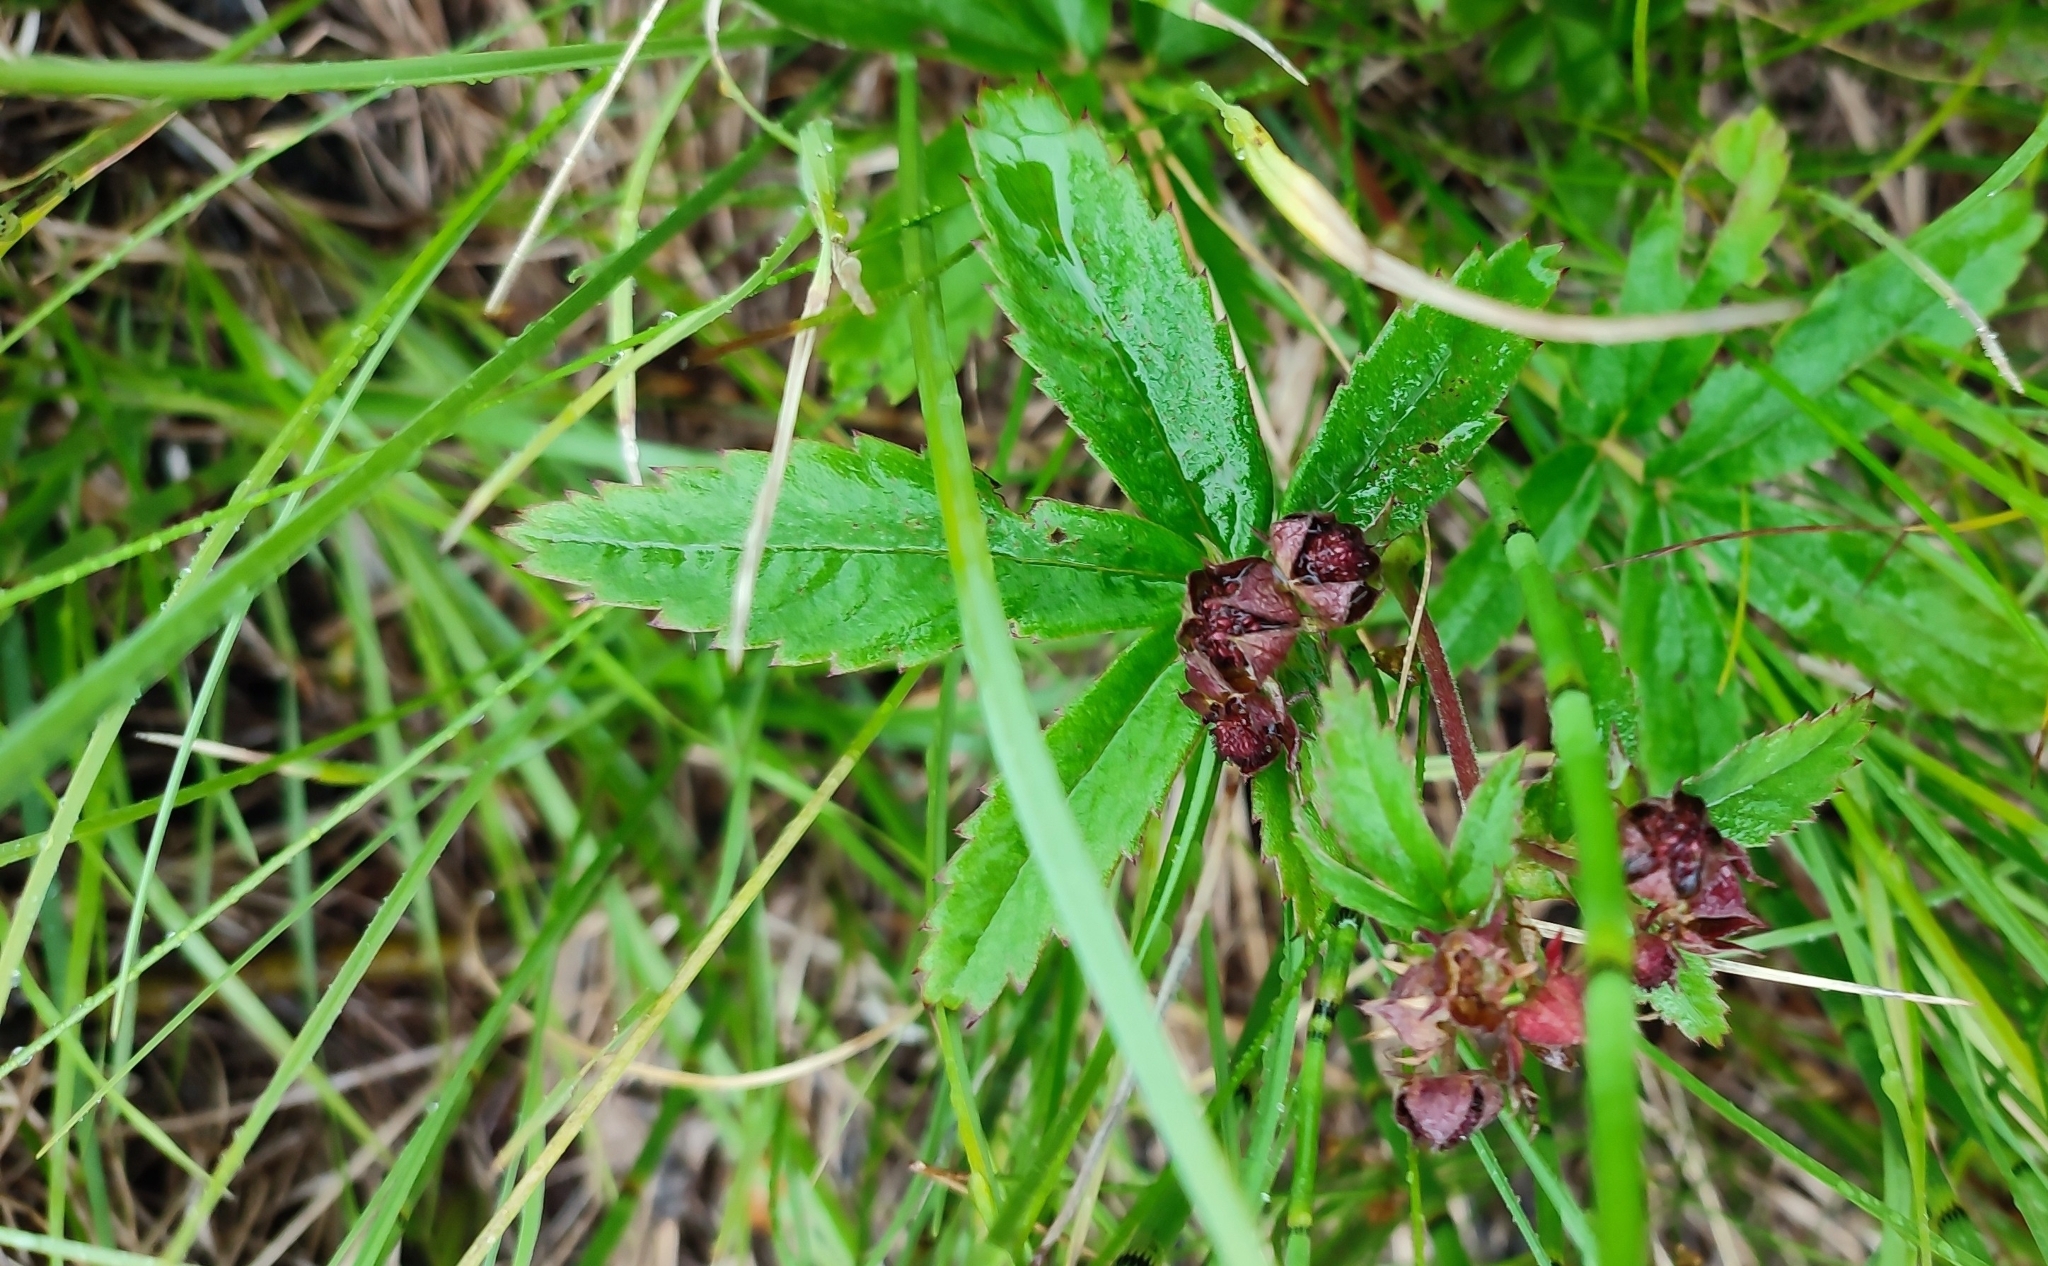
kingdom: Plantae
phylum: Tracheophyta
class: Magnoliopsida
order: Rosales
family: Rosaceae
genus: Comarum
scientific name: Comarum palustre
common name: Marsh cinquefoil
